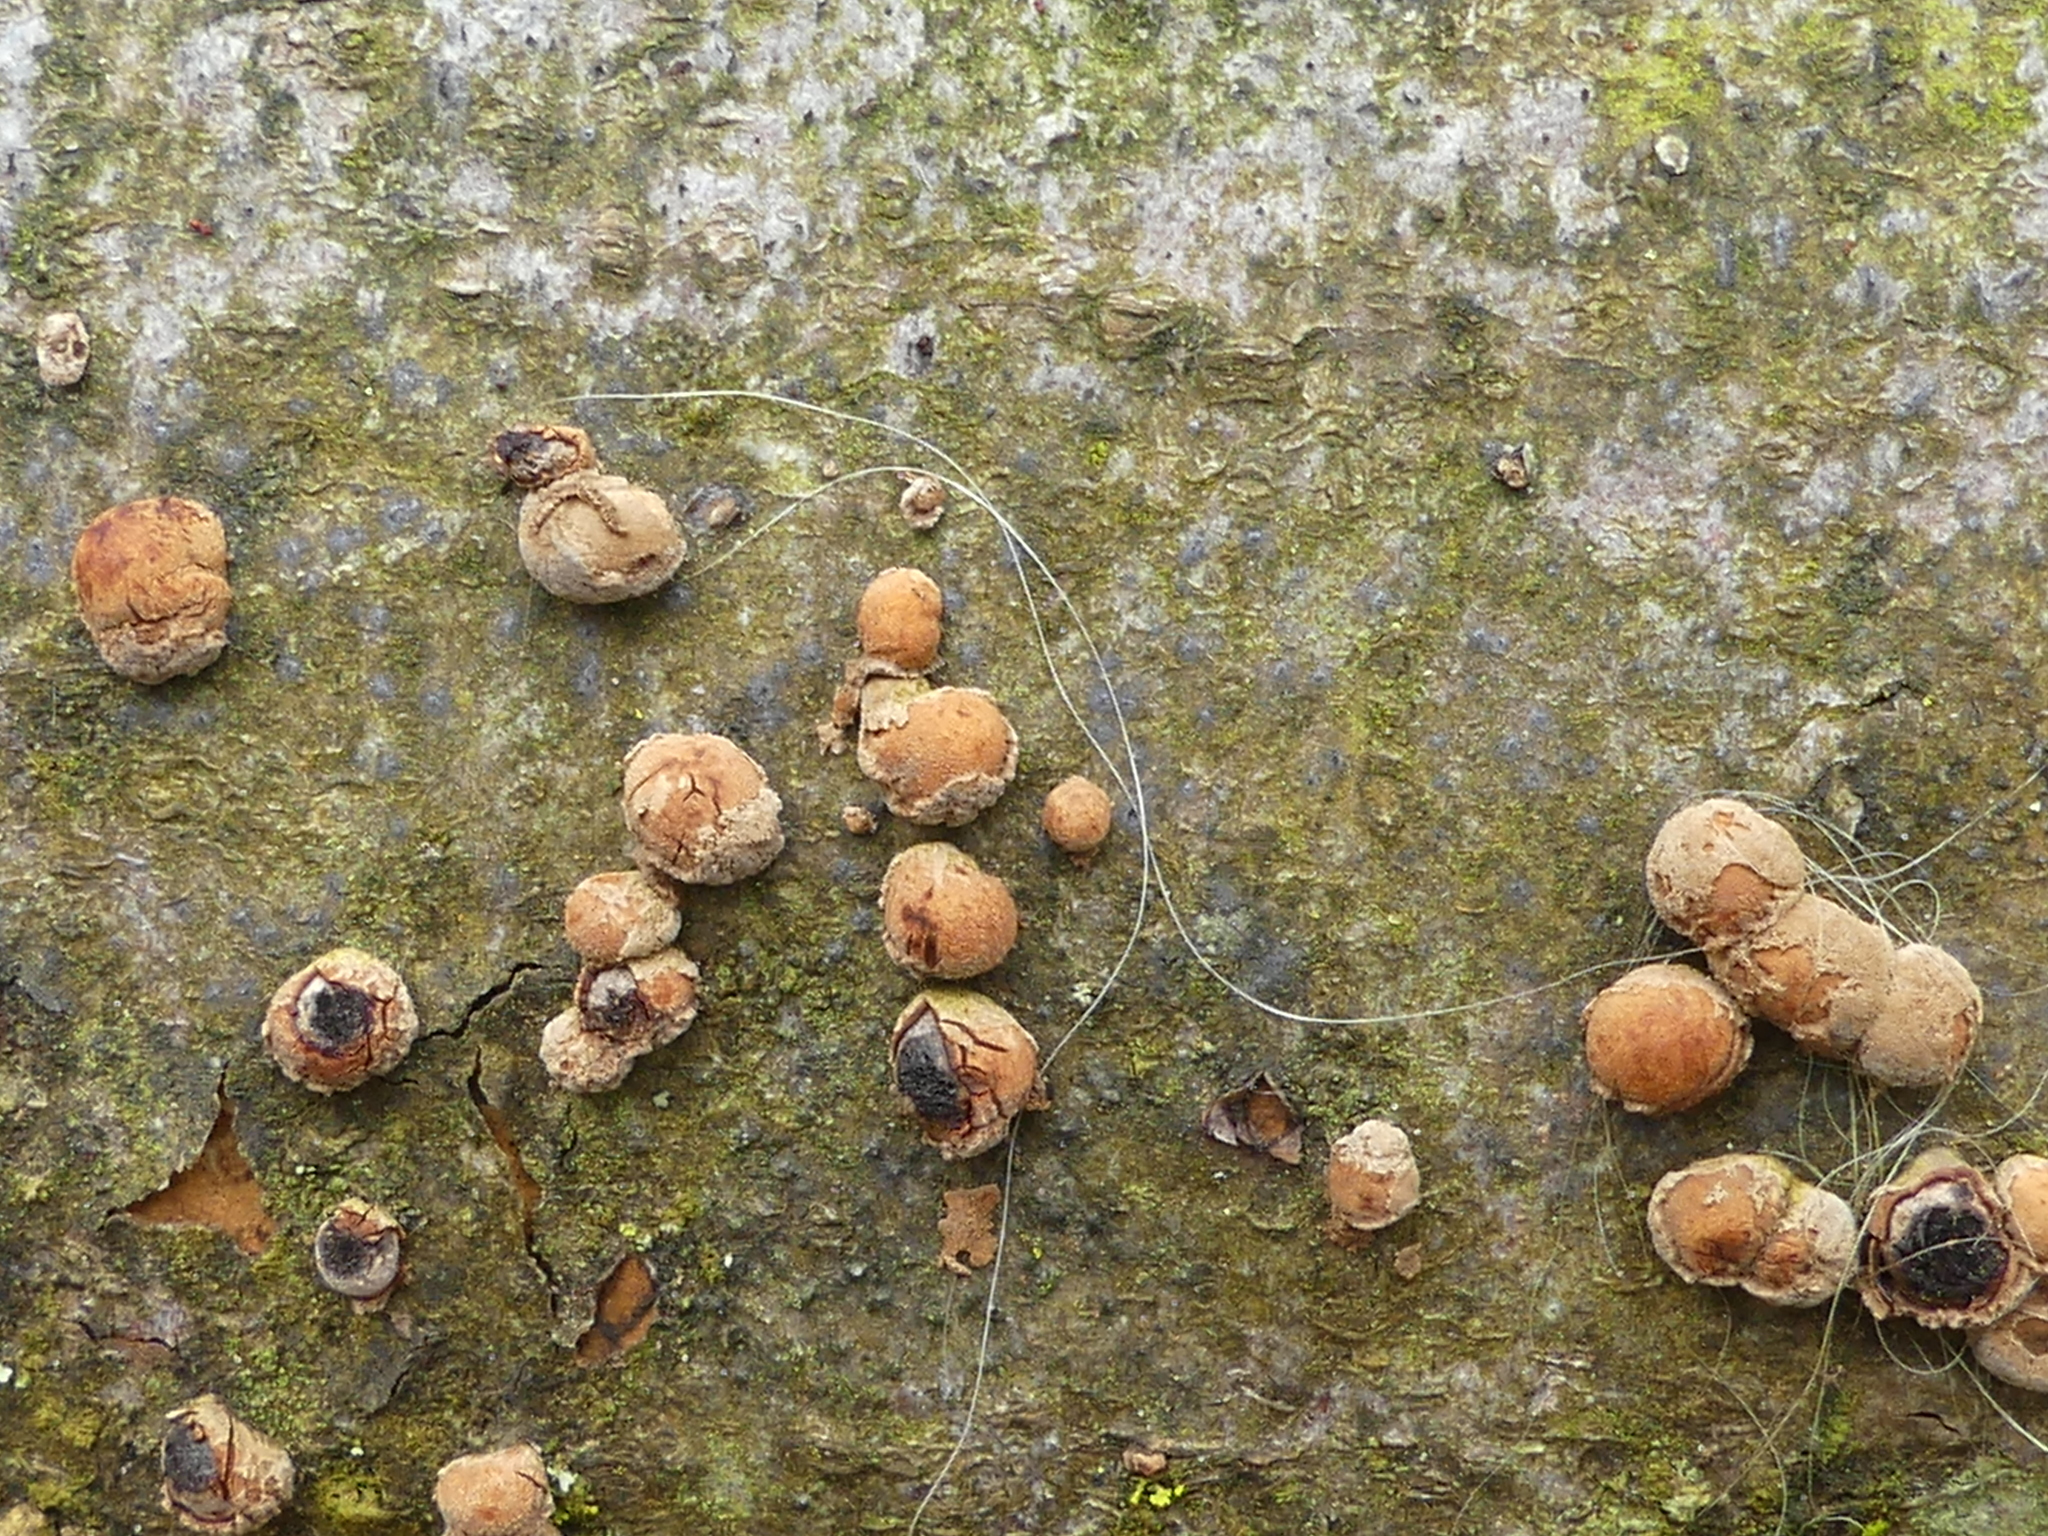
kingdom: Fungi
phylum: Ascomycota
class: Sordariomycetes
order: Xylariales
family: Hypoxylaceae
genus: Hypoxylon
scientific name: Hypoxylon fragiforme
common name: Beech woodwart
